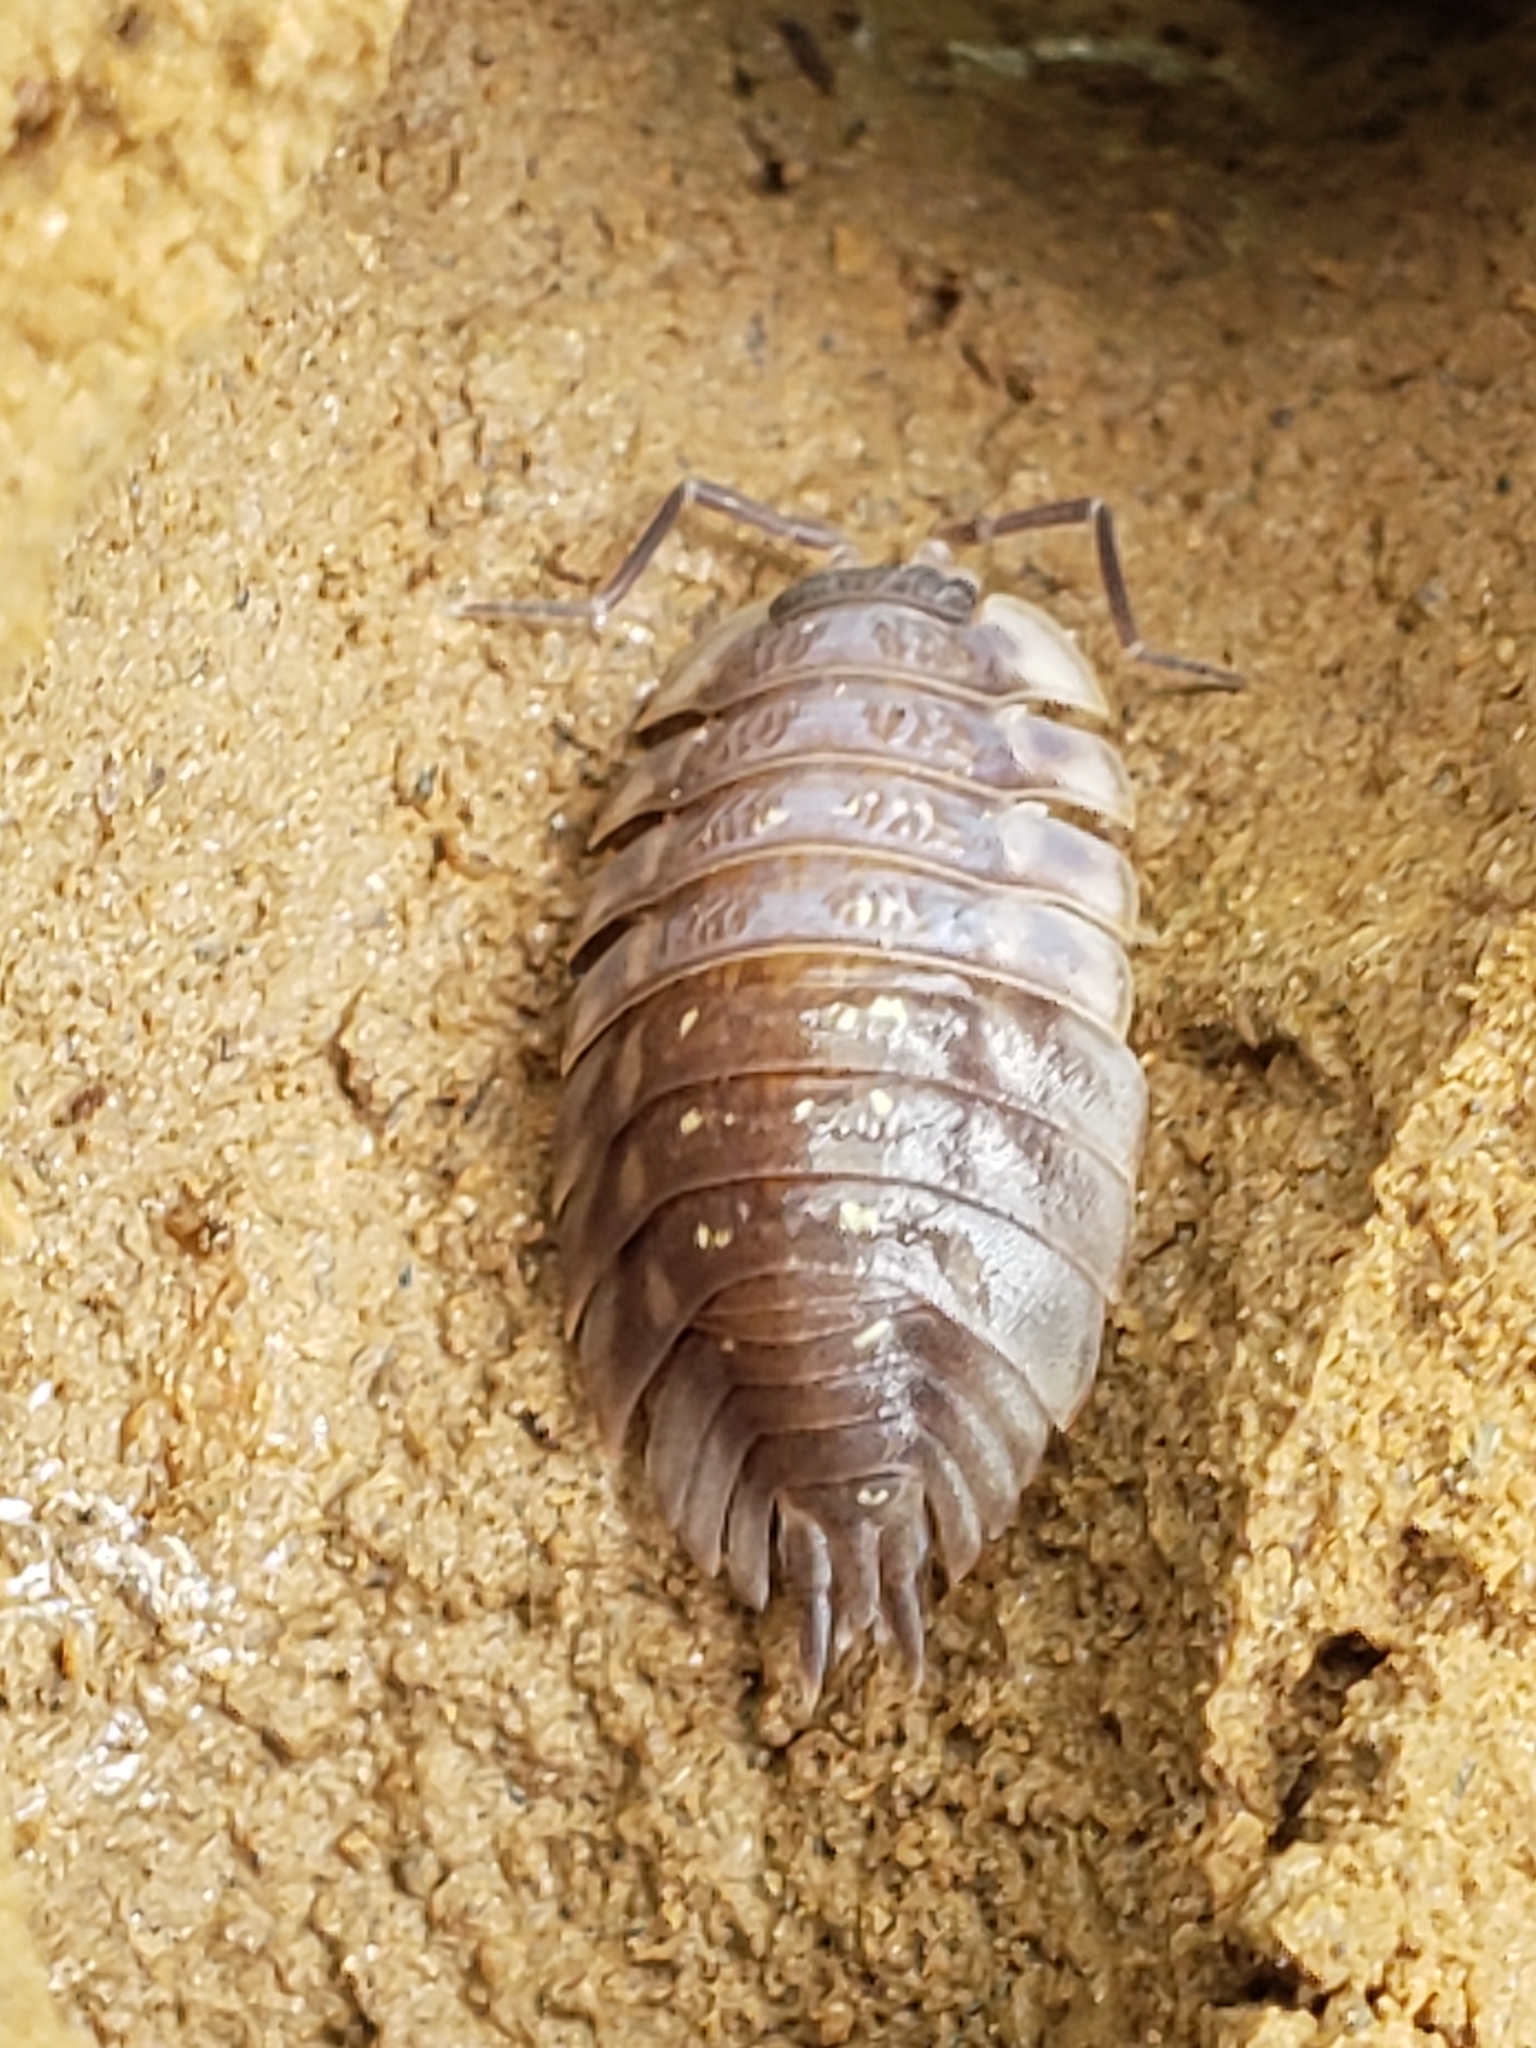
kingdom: Animalia
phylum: Arthropoda
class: Malacostraca
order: Isopoda
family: Oniscidae
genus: Oniscus
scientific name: Oniscus asellus
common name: Common shiny woodlouse
